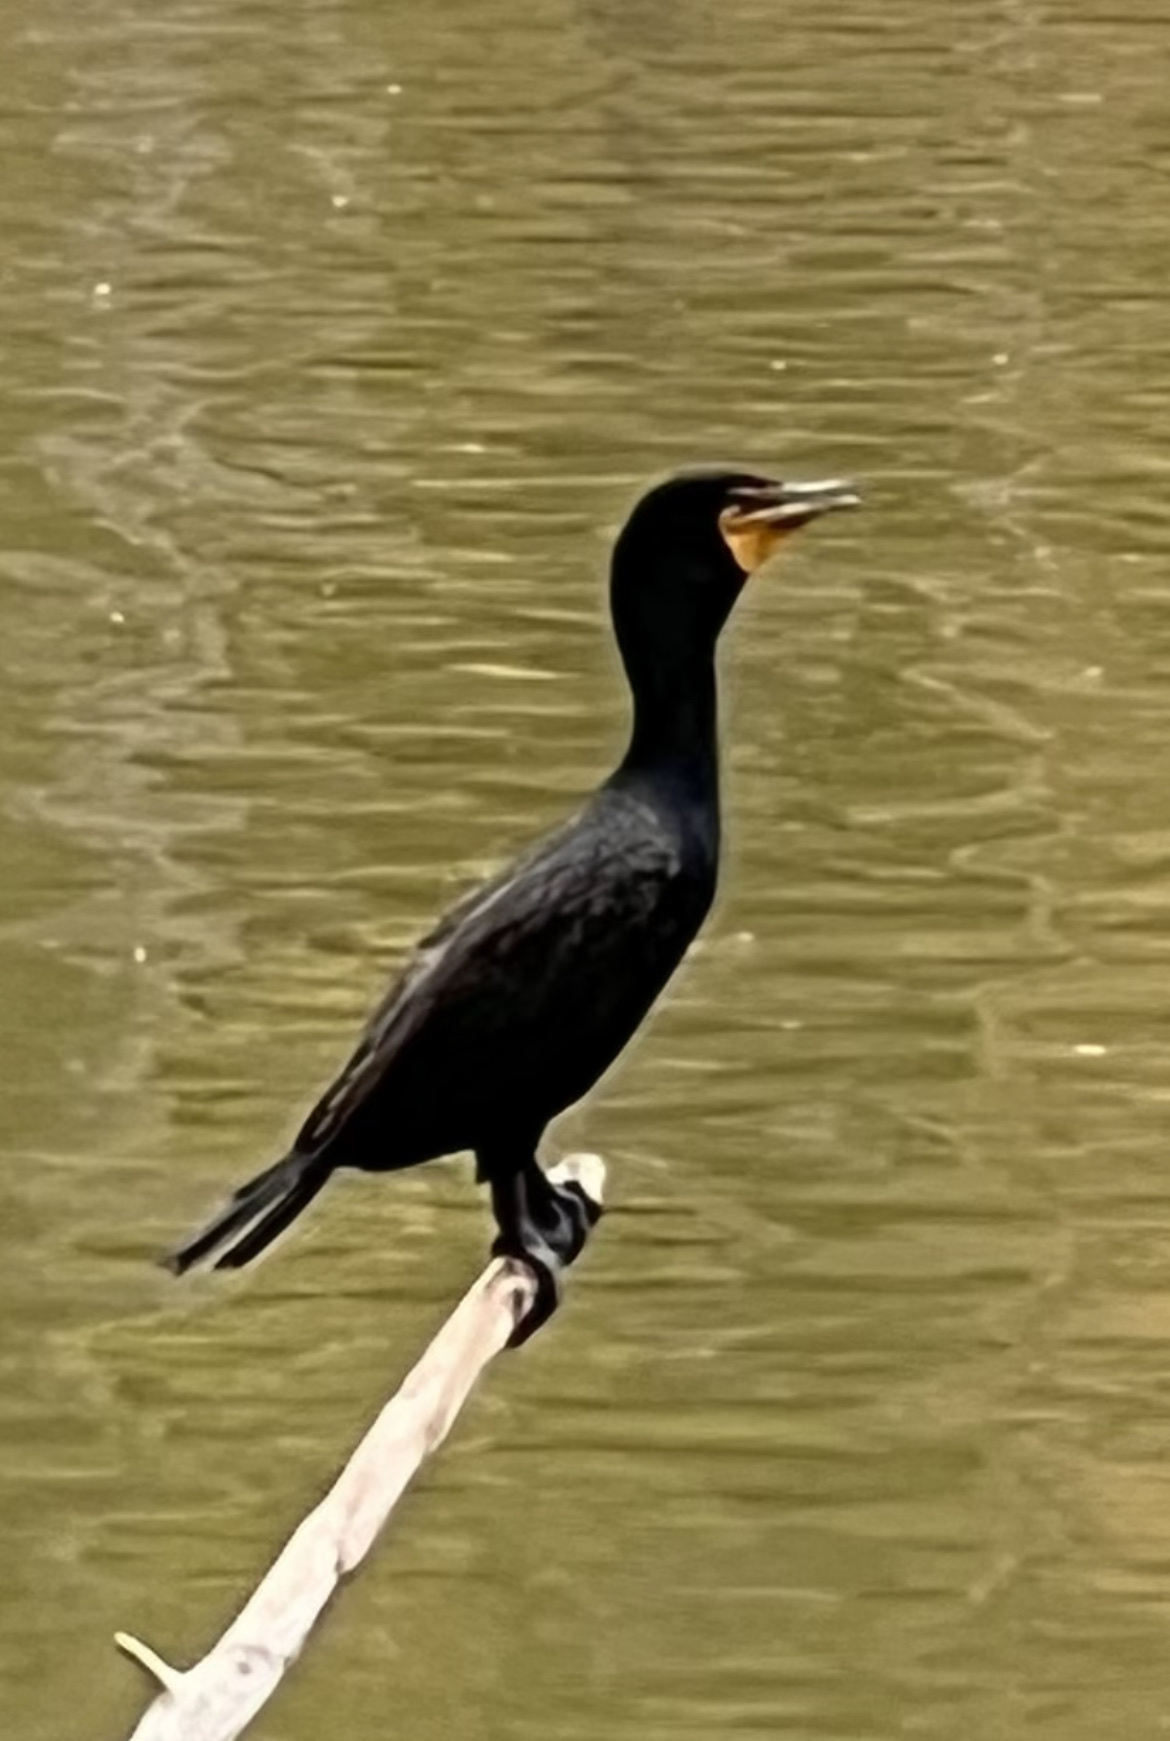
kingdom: Animalia
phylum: Chordata
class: Aves
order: Suliformes
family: Phalacrocoracidae
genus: Phalacrocorax
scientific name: Phalacrocorax auritus
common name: Double-crested cormorant
